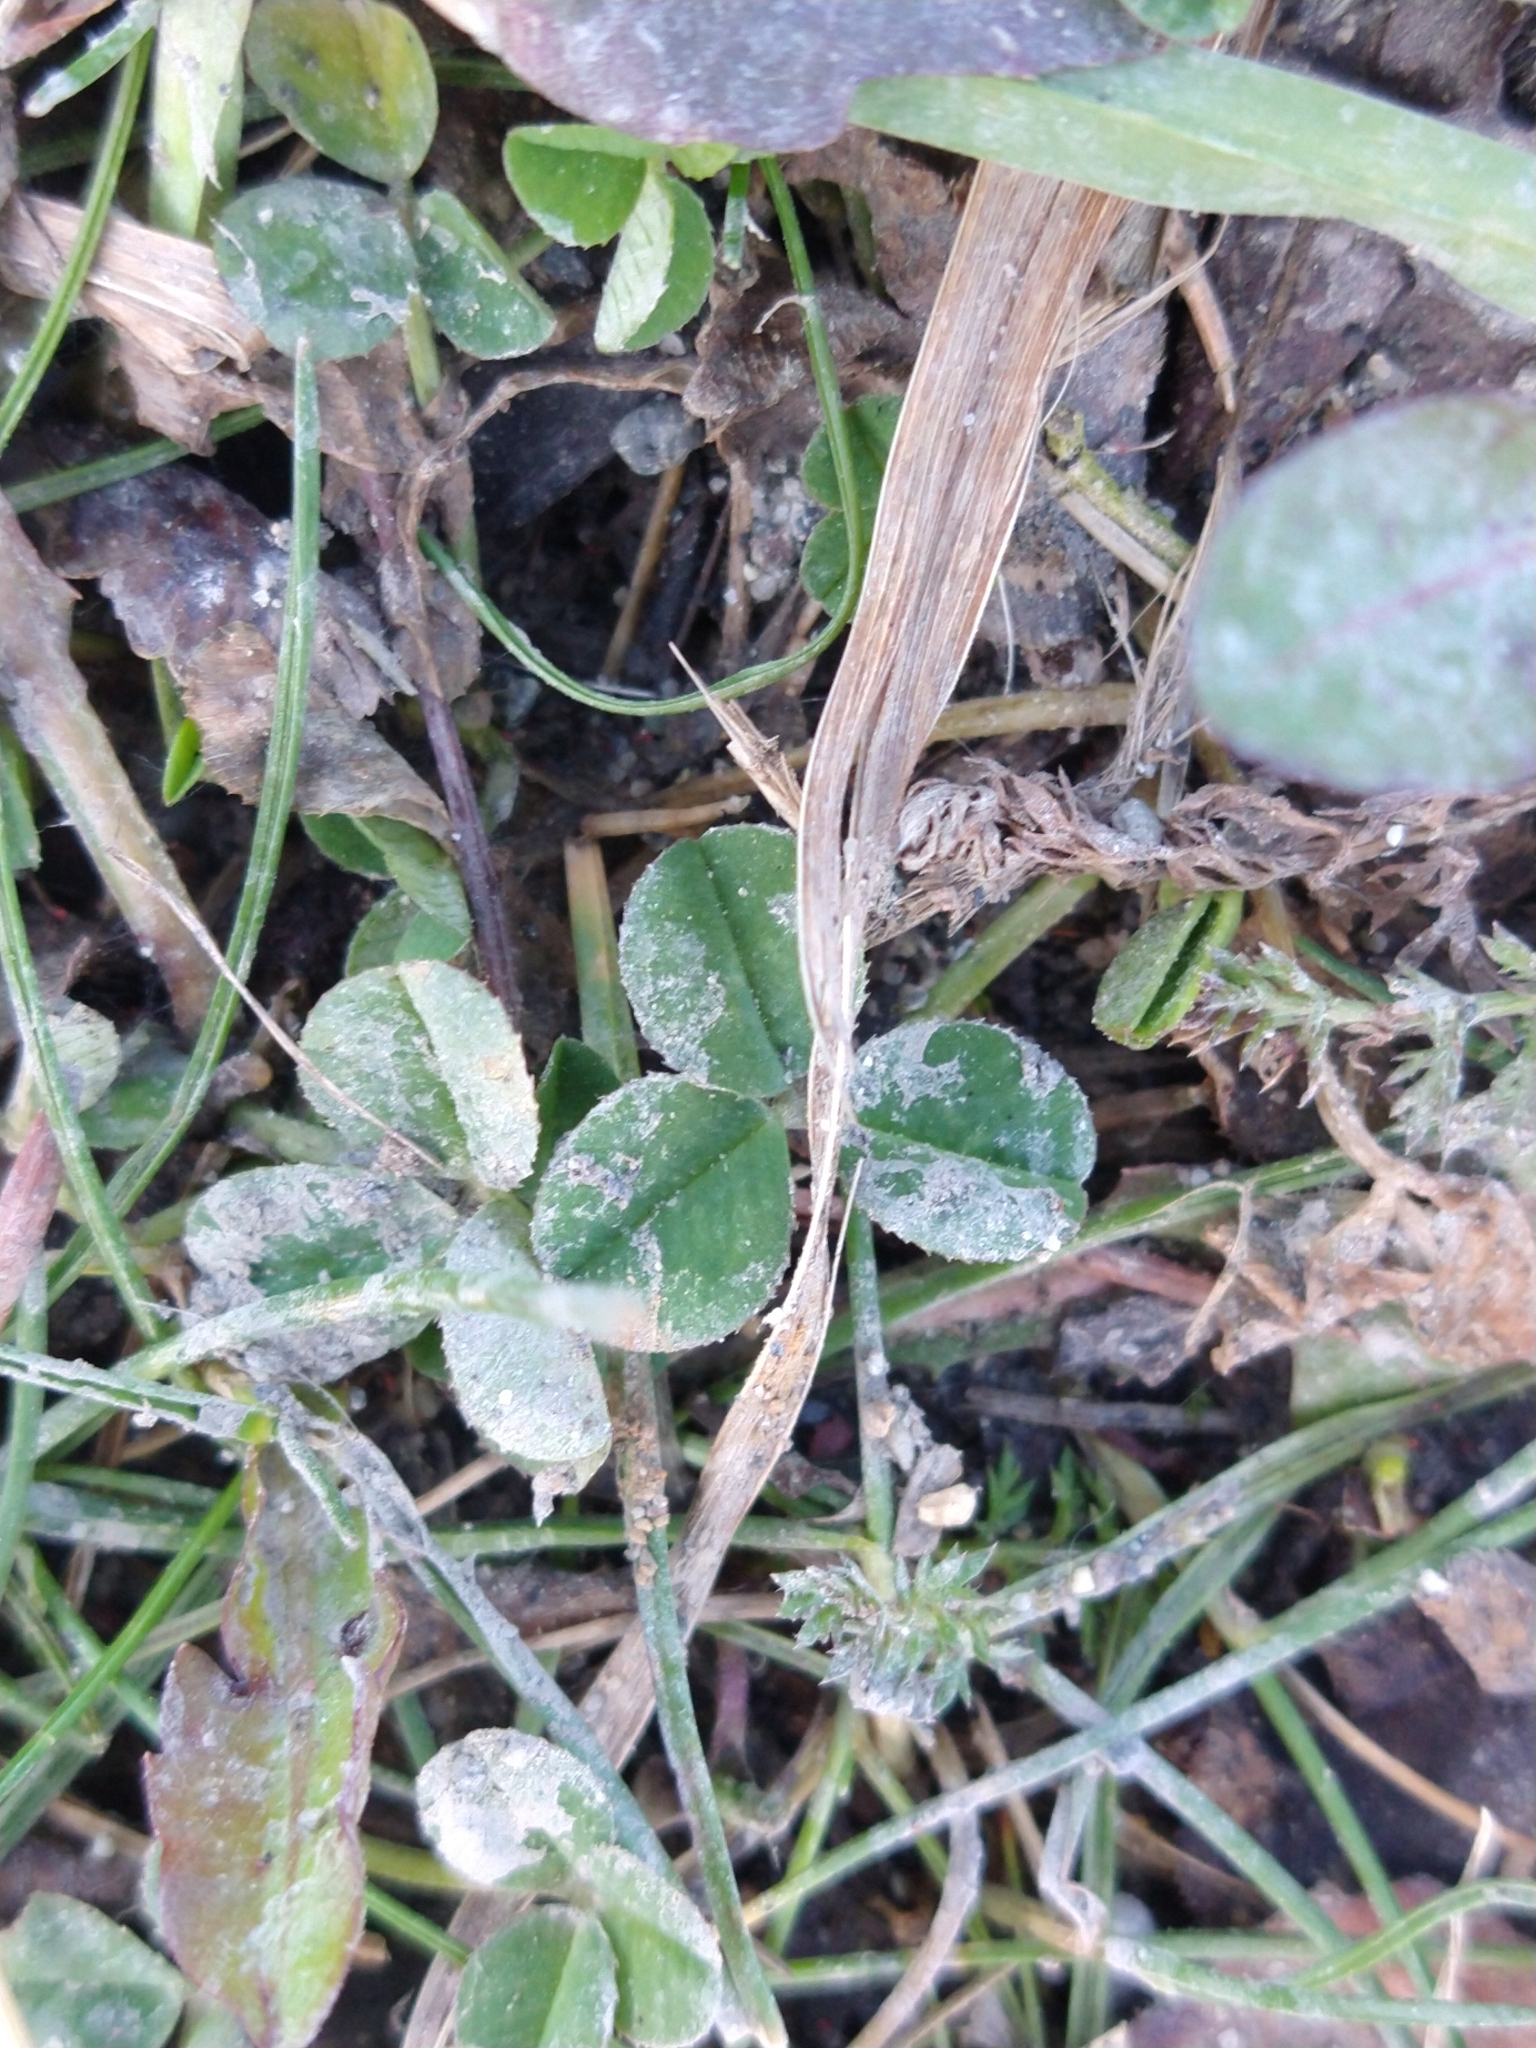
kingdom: Plantae
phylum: Tracheophyta
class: Magnoliopsida
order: Fabales
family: Fabaceae
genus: Trifolium
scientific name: Trifolium repens
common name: White clover
